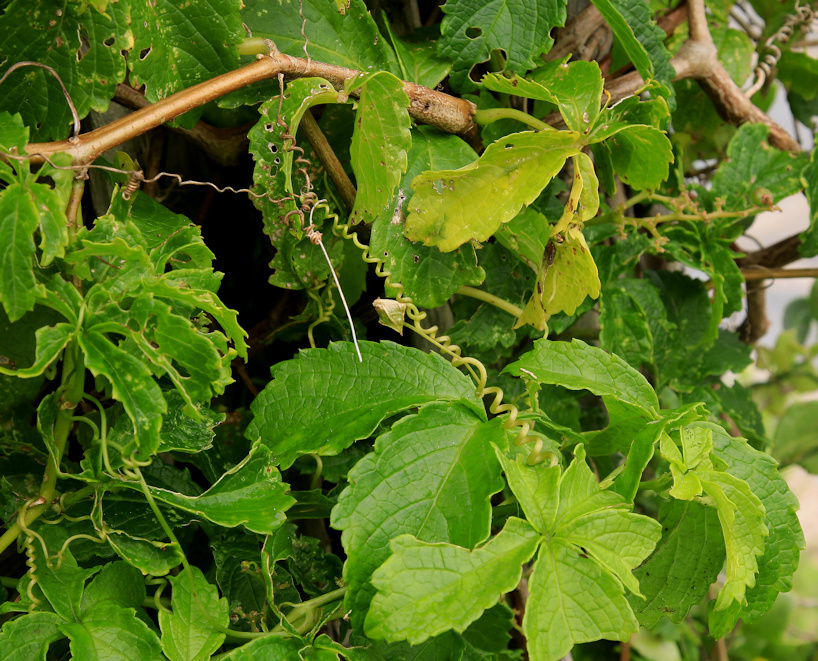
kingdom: Plantae
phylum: Tracheophyta
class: Magnoliopsida
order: Vitales
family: Vitaceae
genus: Cyphostemma
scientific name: Cyphostemma cirrhosum
